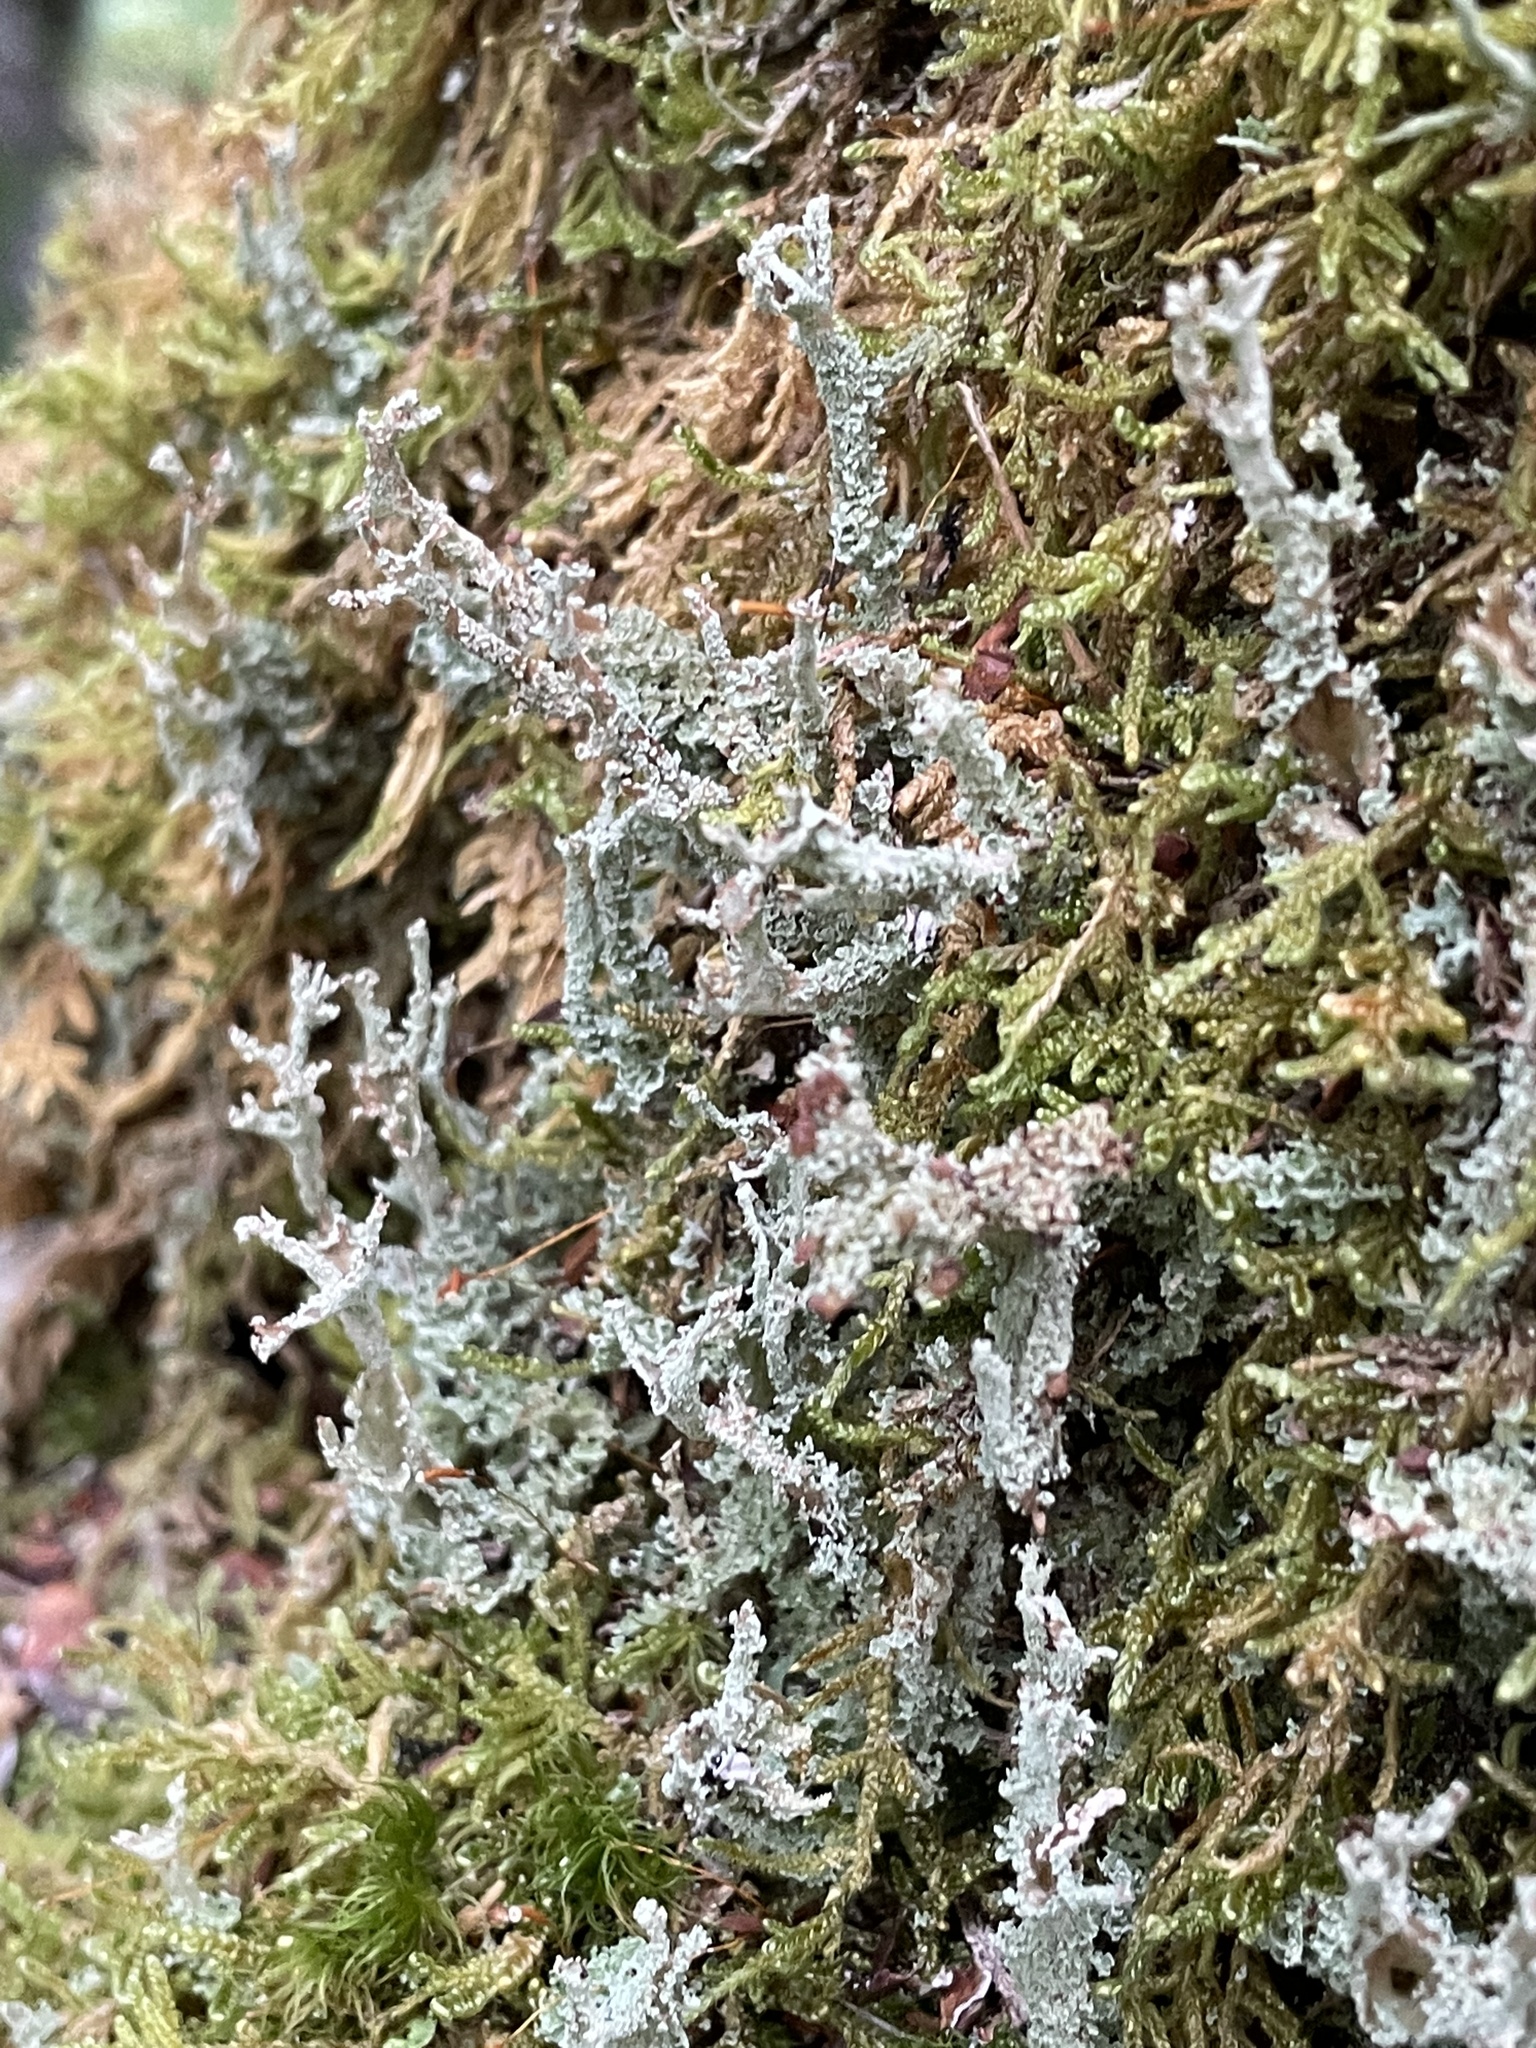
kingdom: Fungi
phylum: Ascomycota
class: Lecanoromycetes
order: Lecanorales
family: Cladoniaceae
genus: Cladonia
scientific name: Cladonia squamosa
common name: Dragon horn
